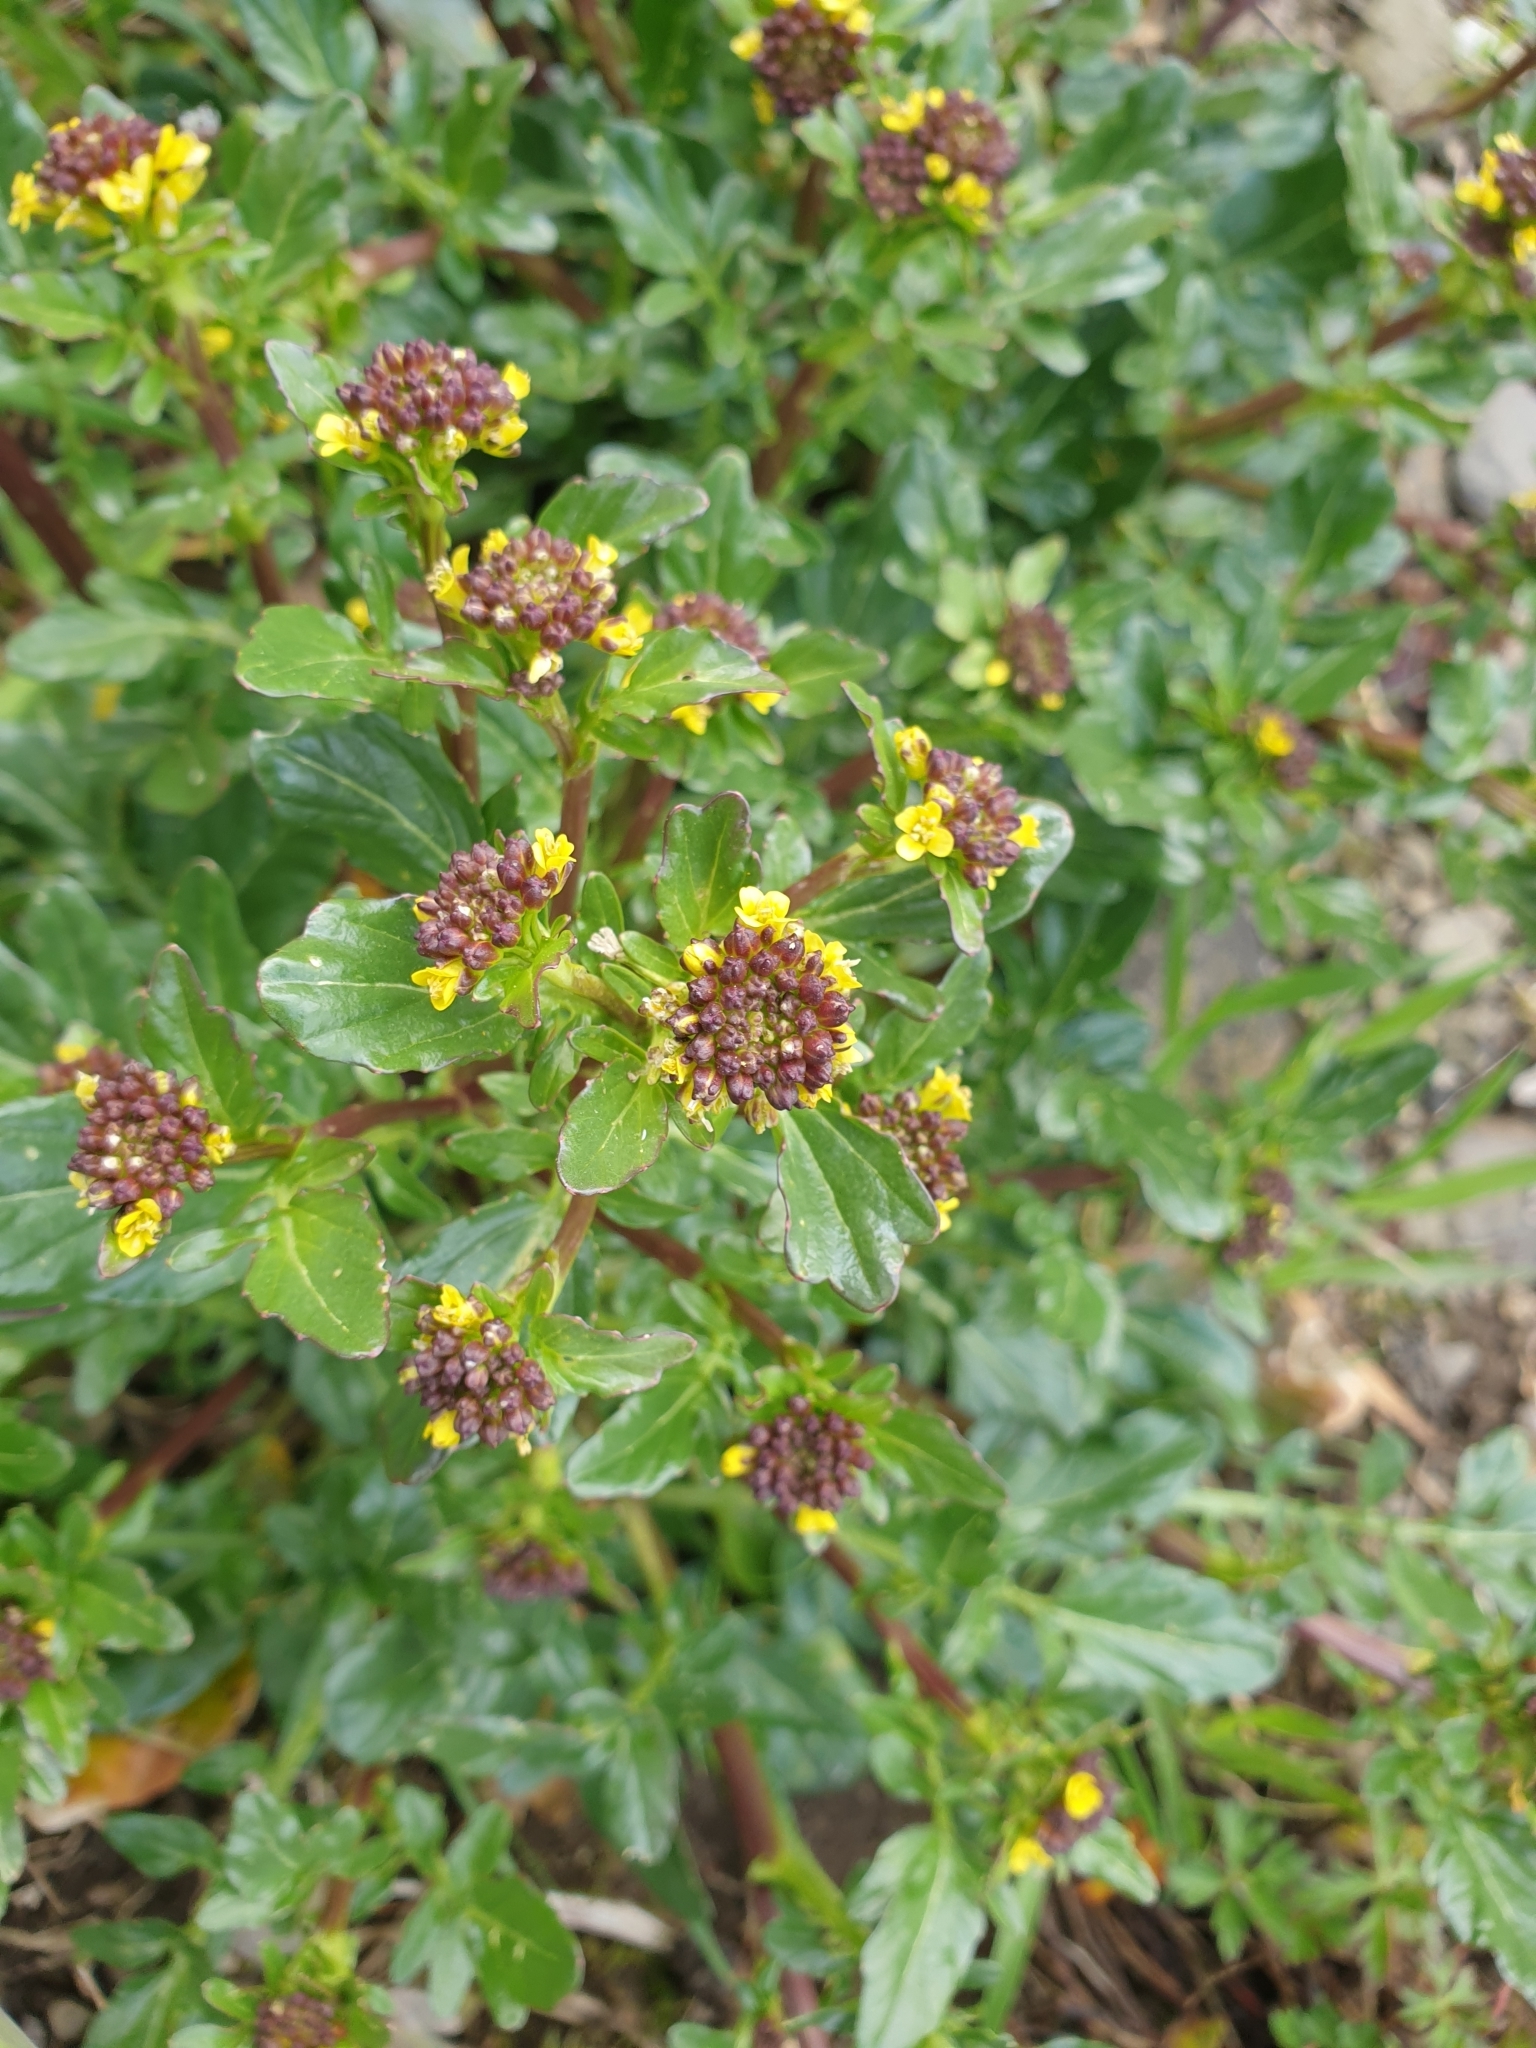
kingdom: Plantae
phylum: Tracheophyta
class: Magnoliopsida
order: Brassicales
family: Brassicaceae
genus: Barbarea
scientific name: Barbarea vulgaris
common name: Cressy-greens
